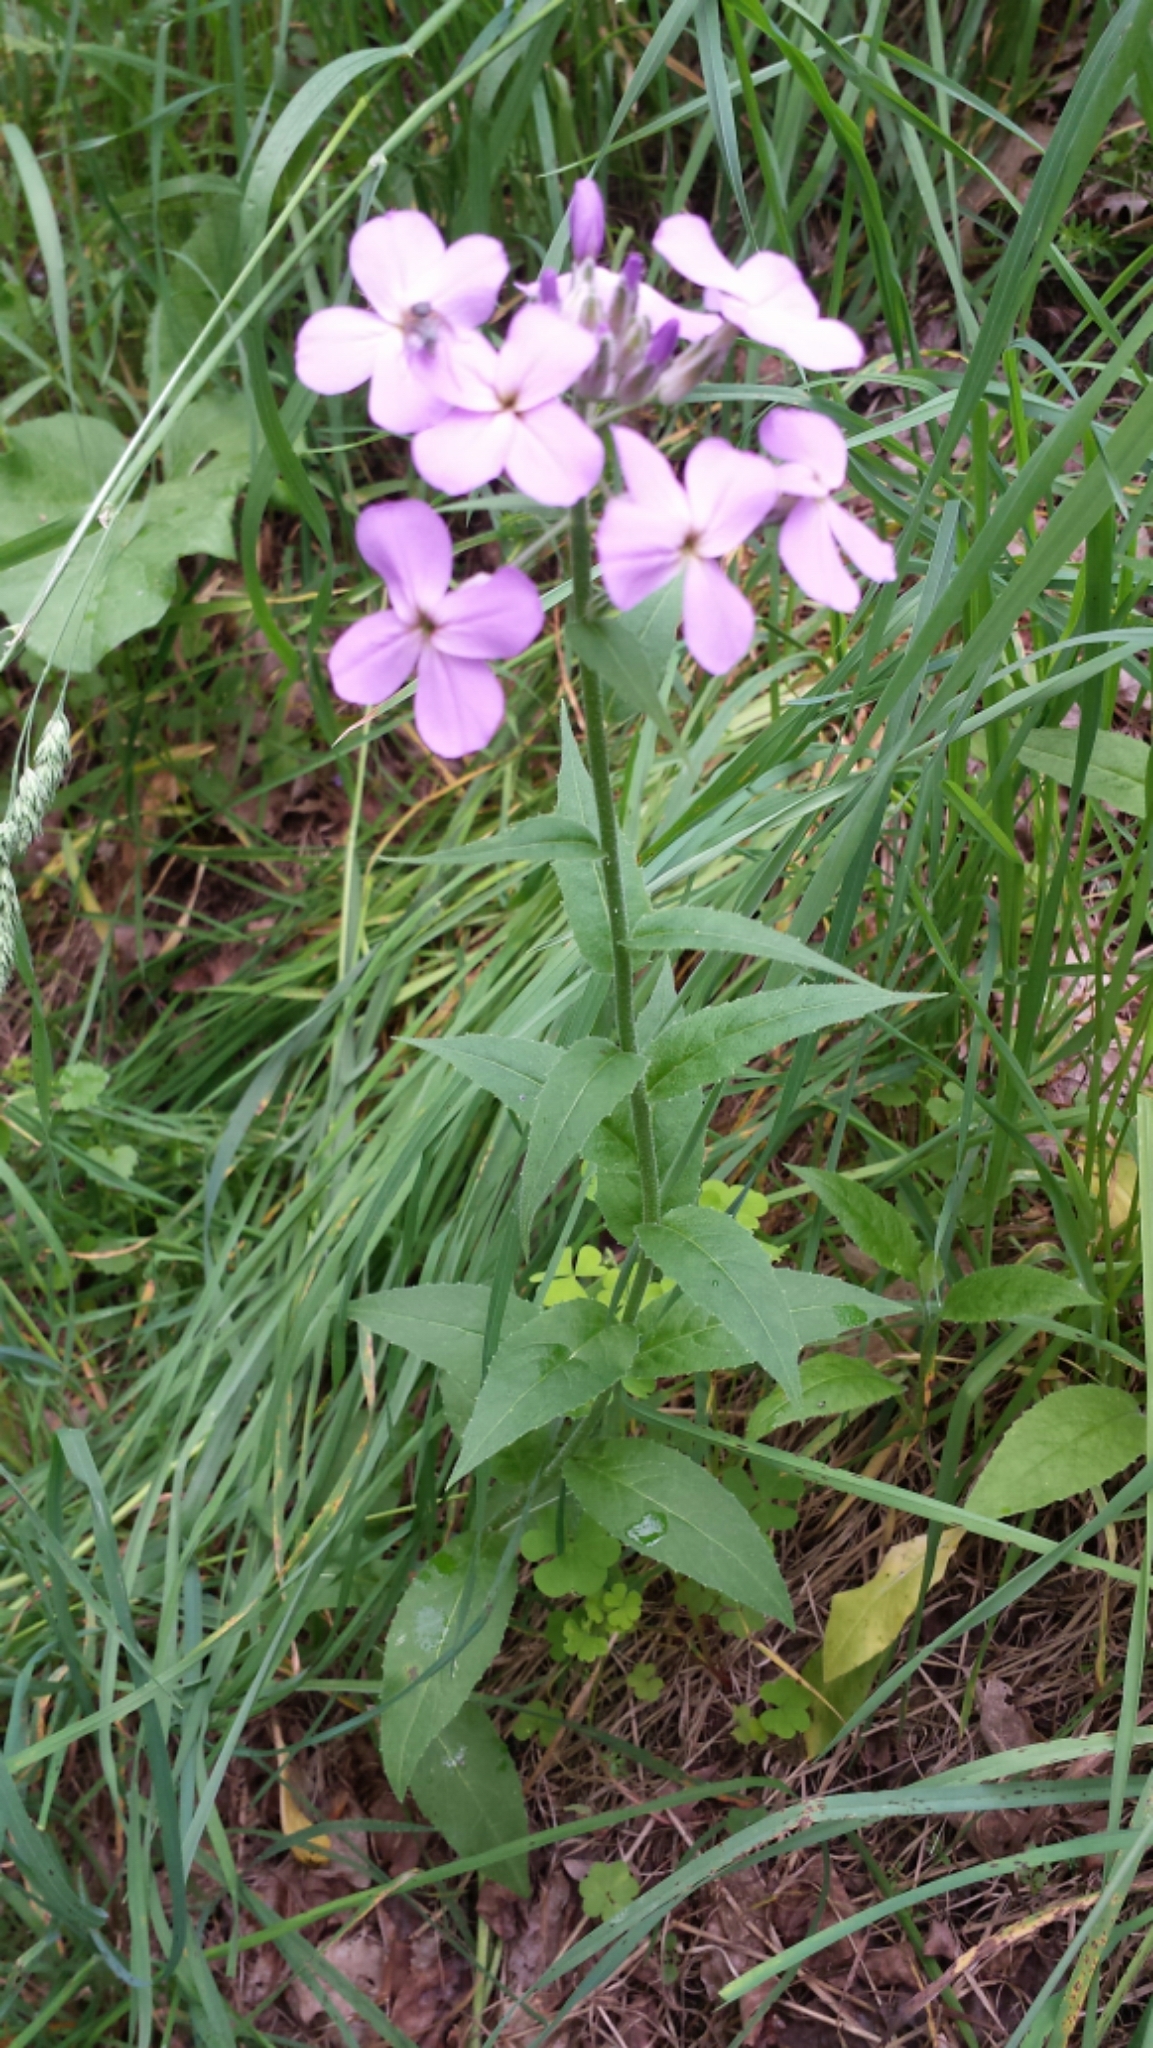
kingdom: Plantae
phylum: Tracheophyta
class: Magnoliopsida
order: Brassicales
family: Brassicaceae
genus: Hesperis
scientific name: Hesperis matronalis
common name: Dame's-violet
